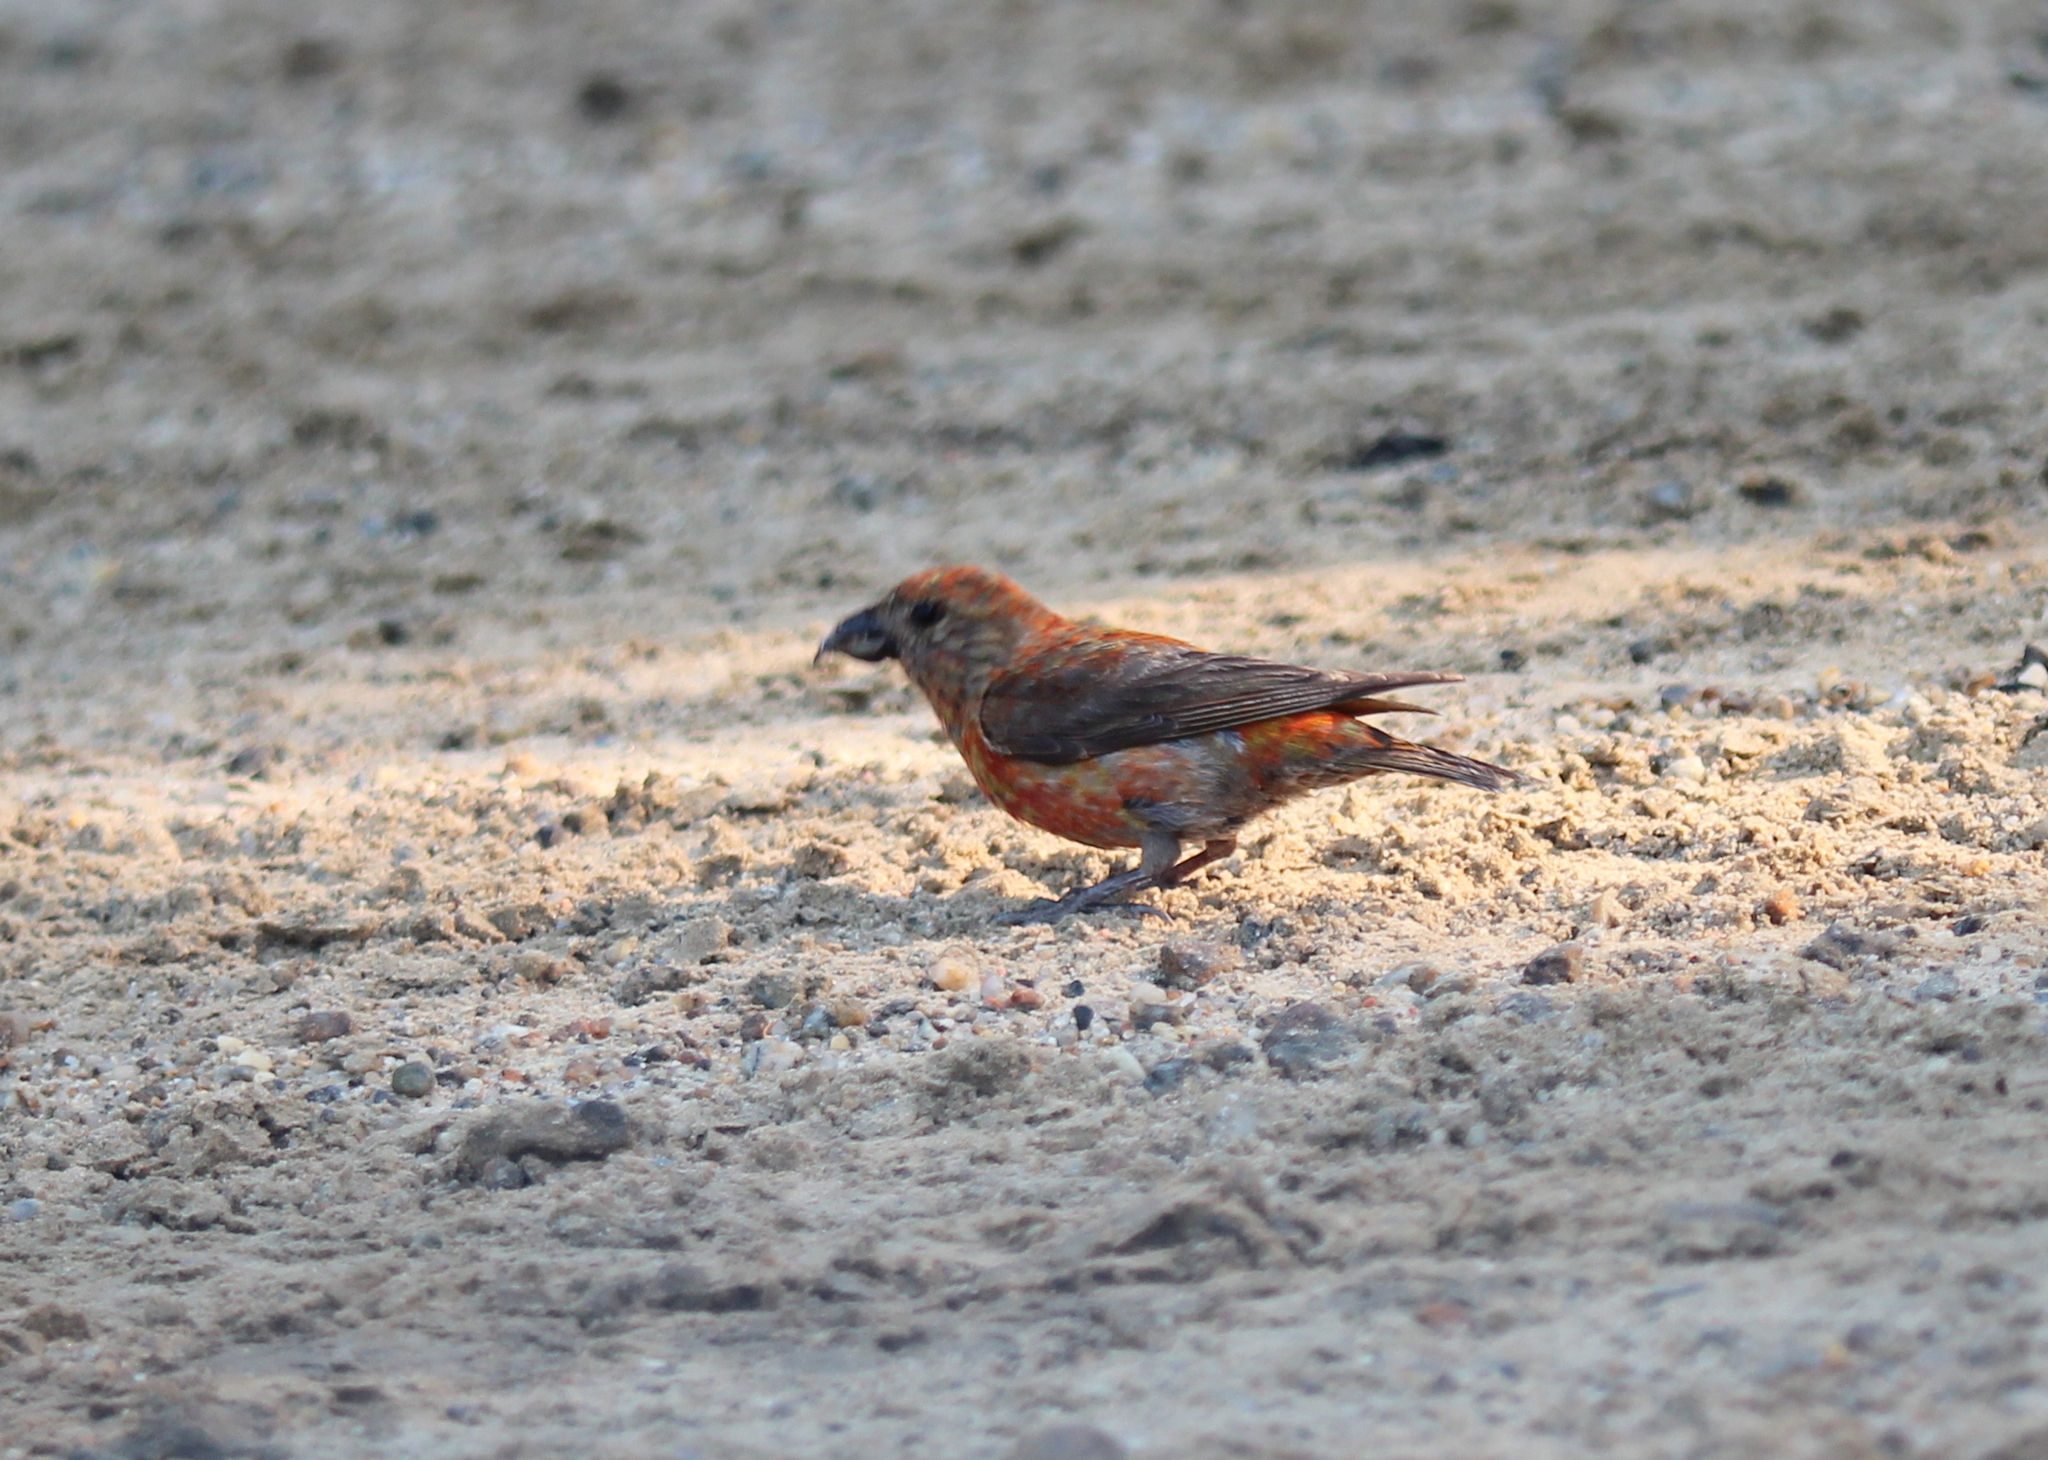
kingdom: Animalia
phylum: Chordata
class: Aves
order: Passeriformes
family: Fringillidae
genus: Loxia
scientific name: Loxia curvirostra
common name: Red crossbill
